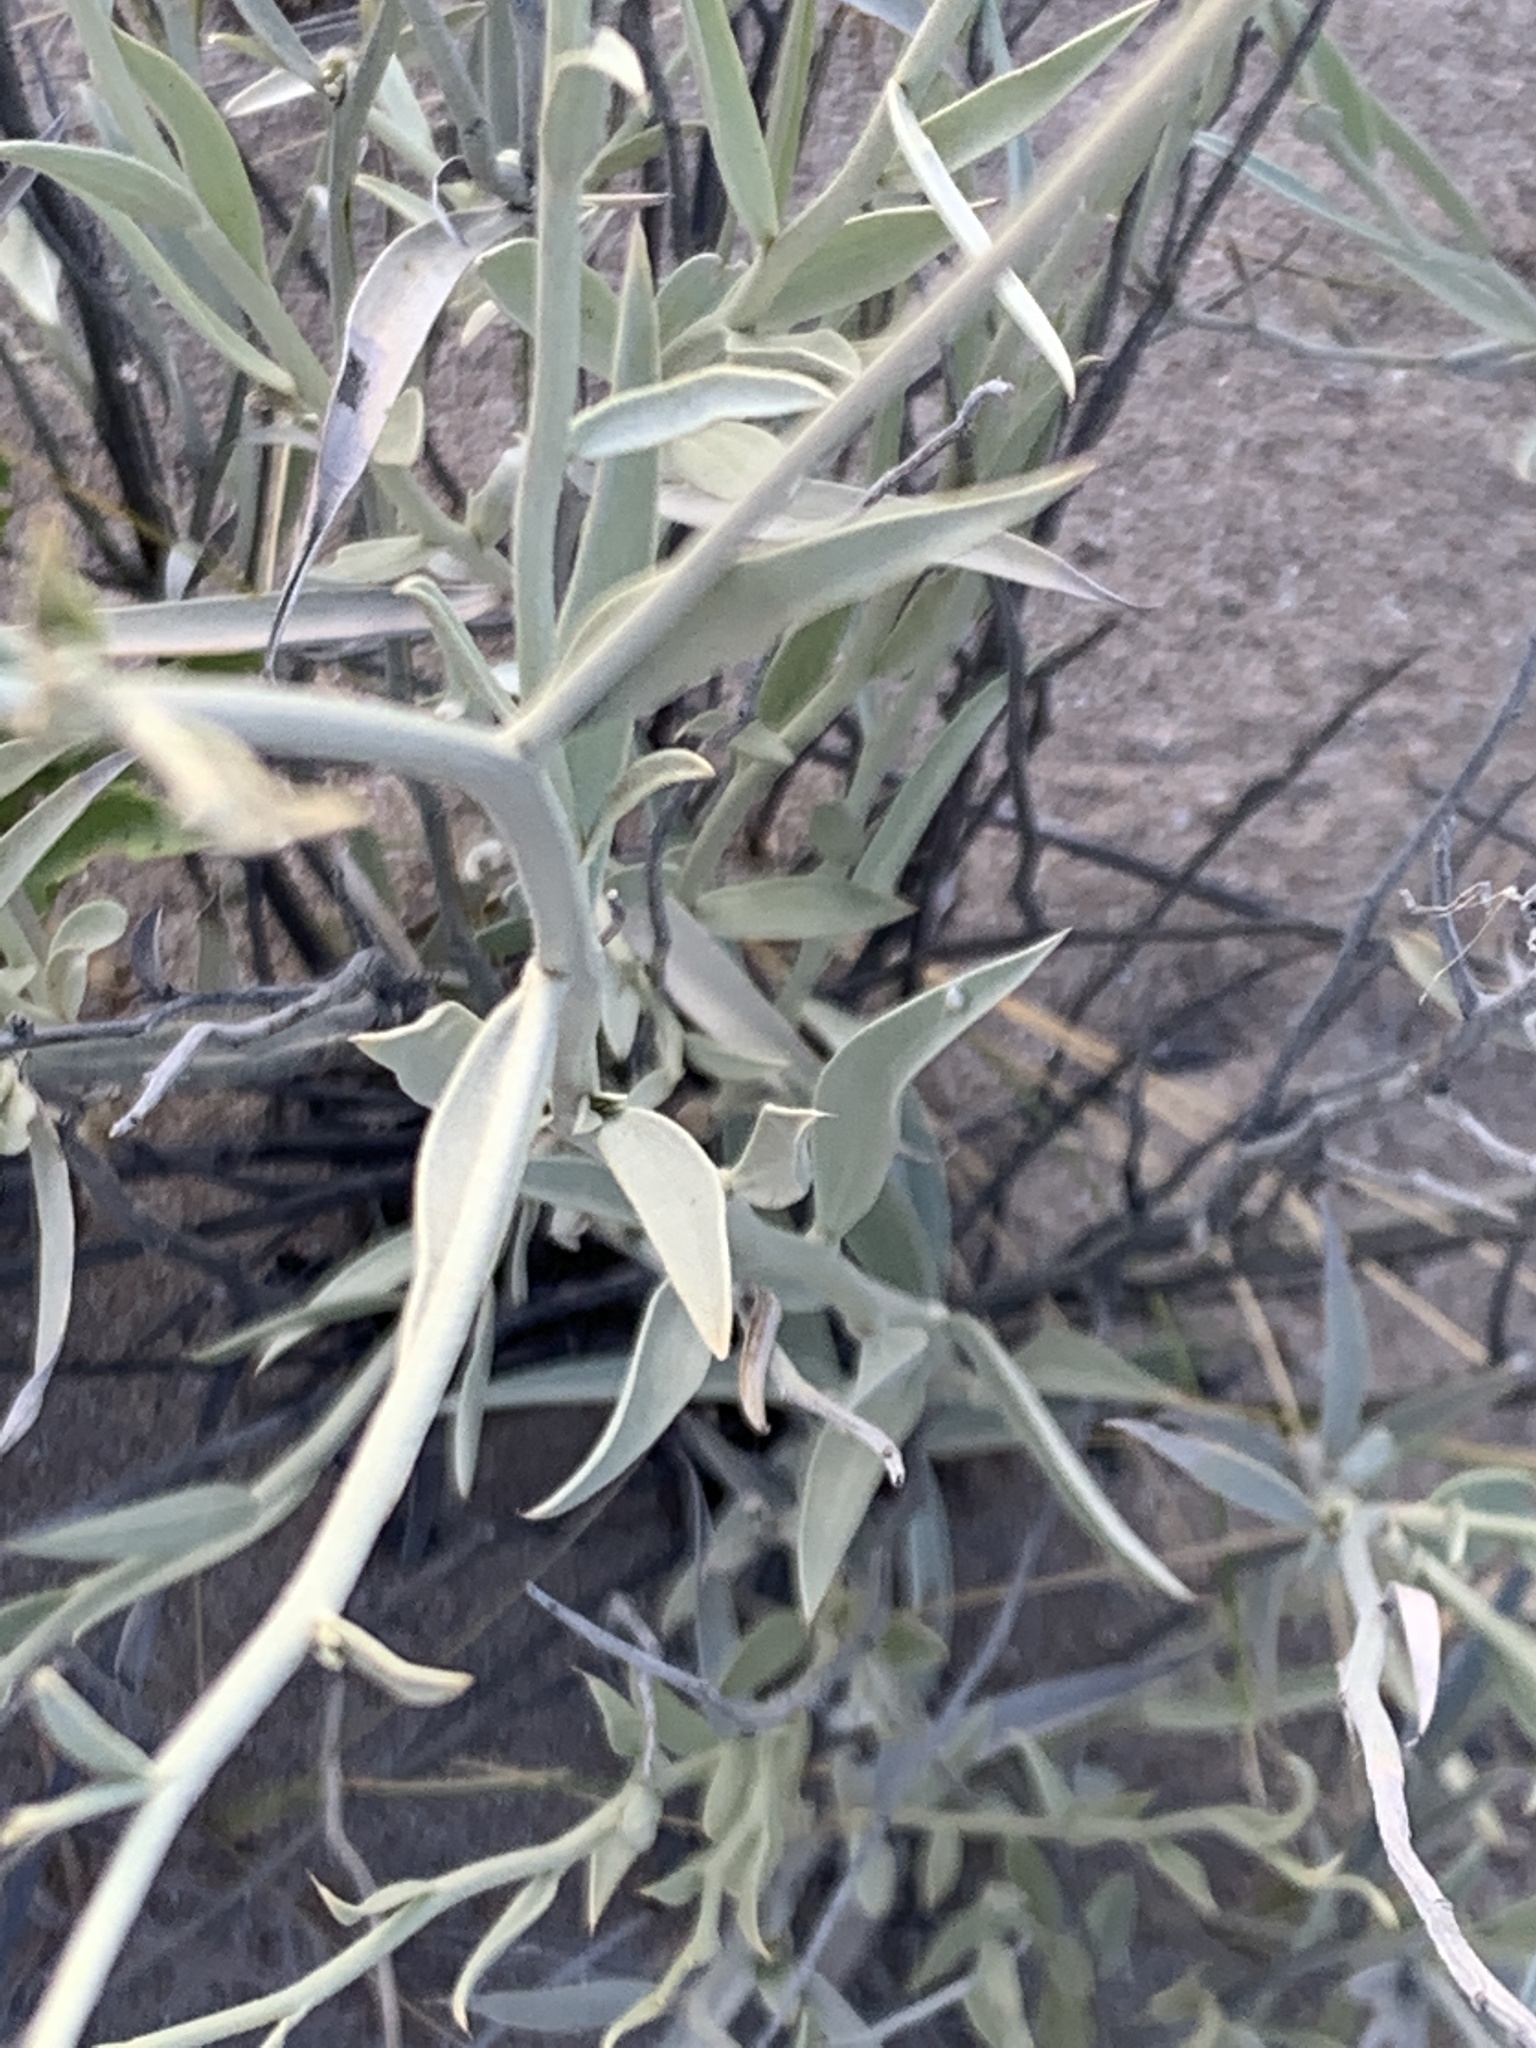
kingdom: Plantae
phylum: Tracheophyta
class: Magnoliopsida
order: Asterales
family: Asteraceae
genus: Hyalis
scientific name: Hyalis argentea
